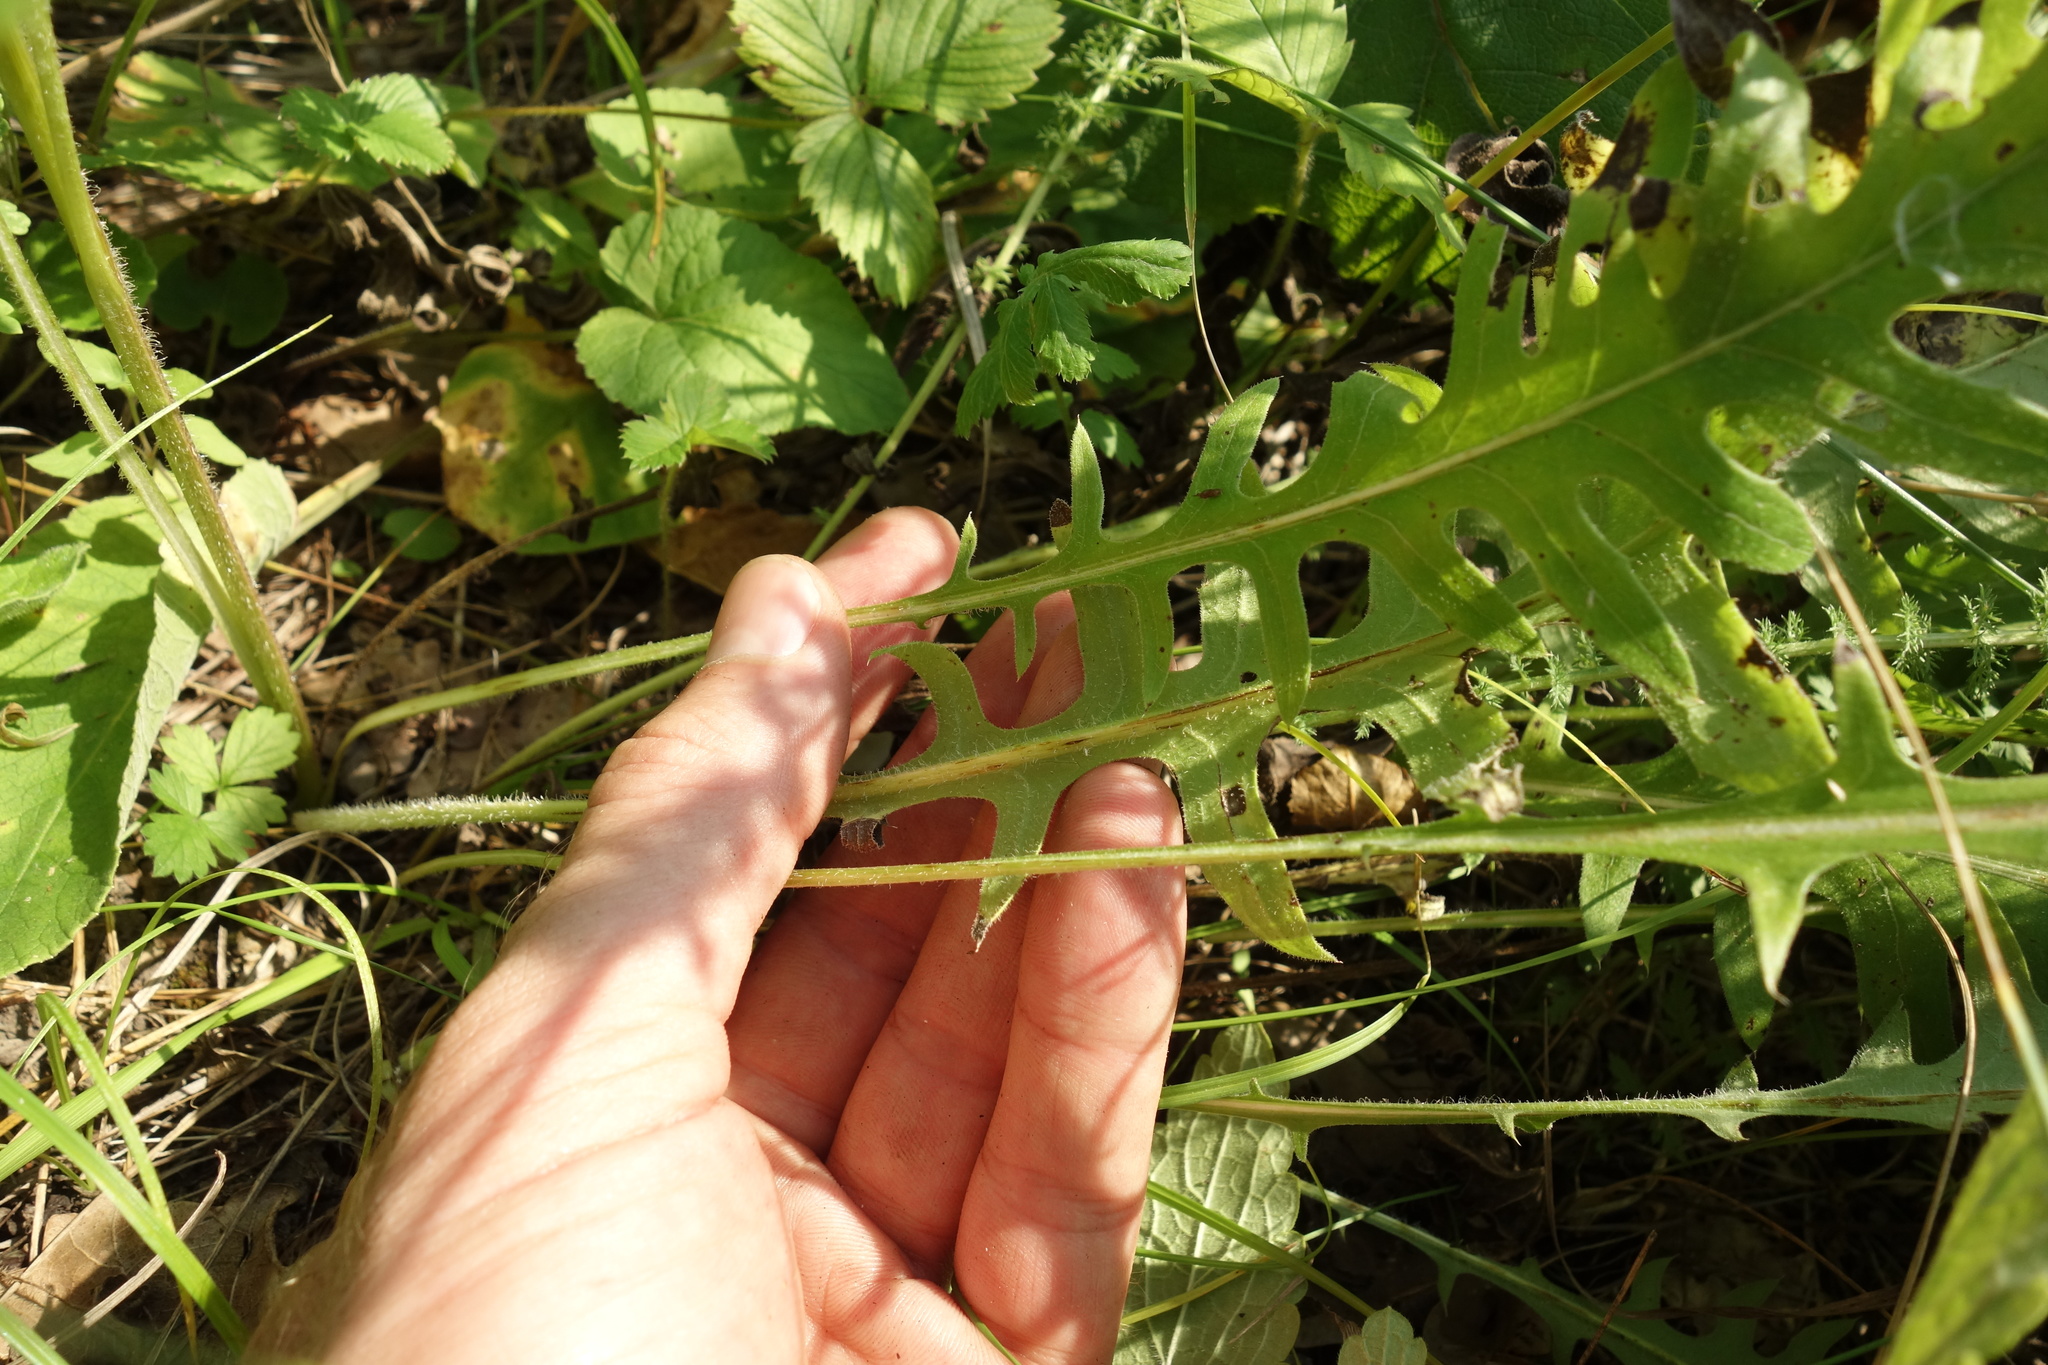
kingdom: Plantae
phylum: Tracheophyta
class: Magnoliopsida
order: Asterales
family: Asteraceae
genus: Klasea
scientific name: Klasea radiata
